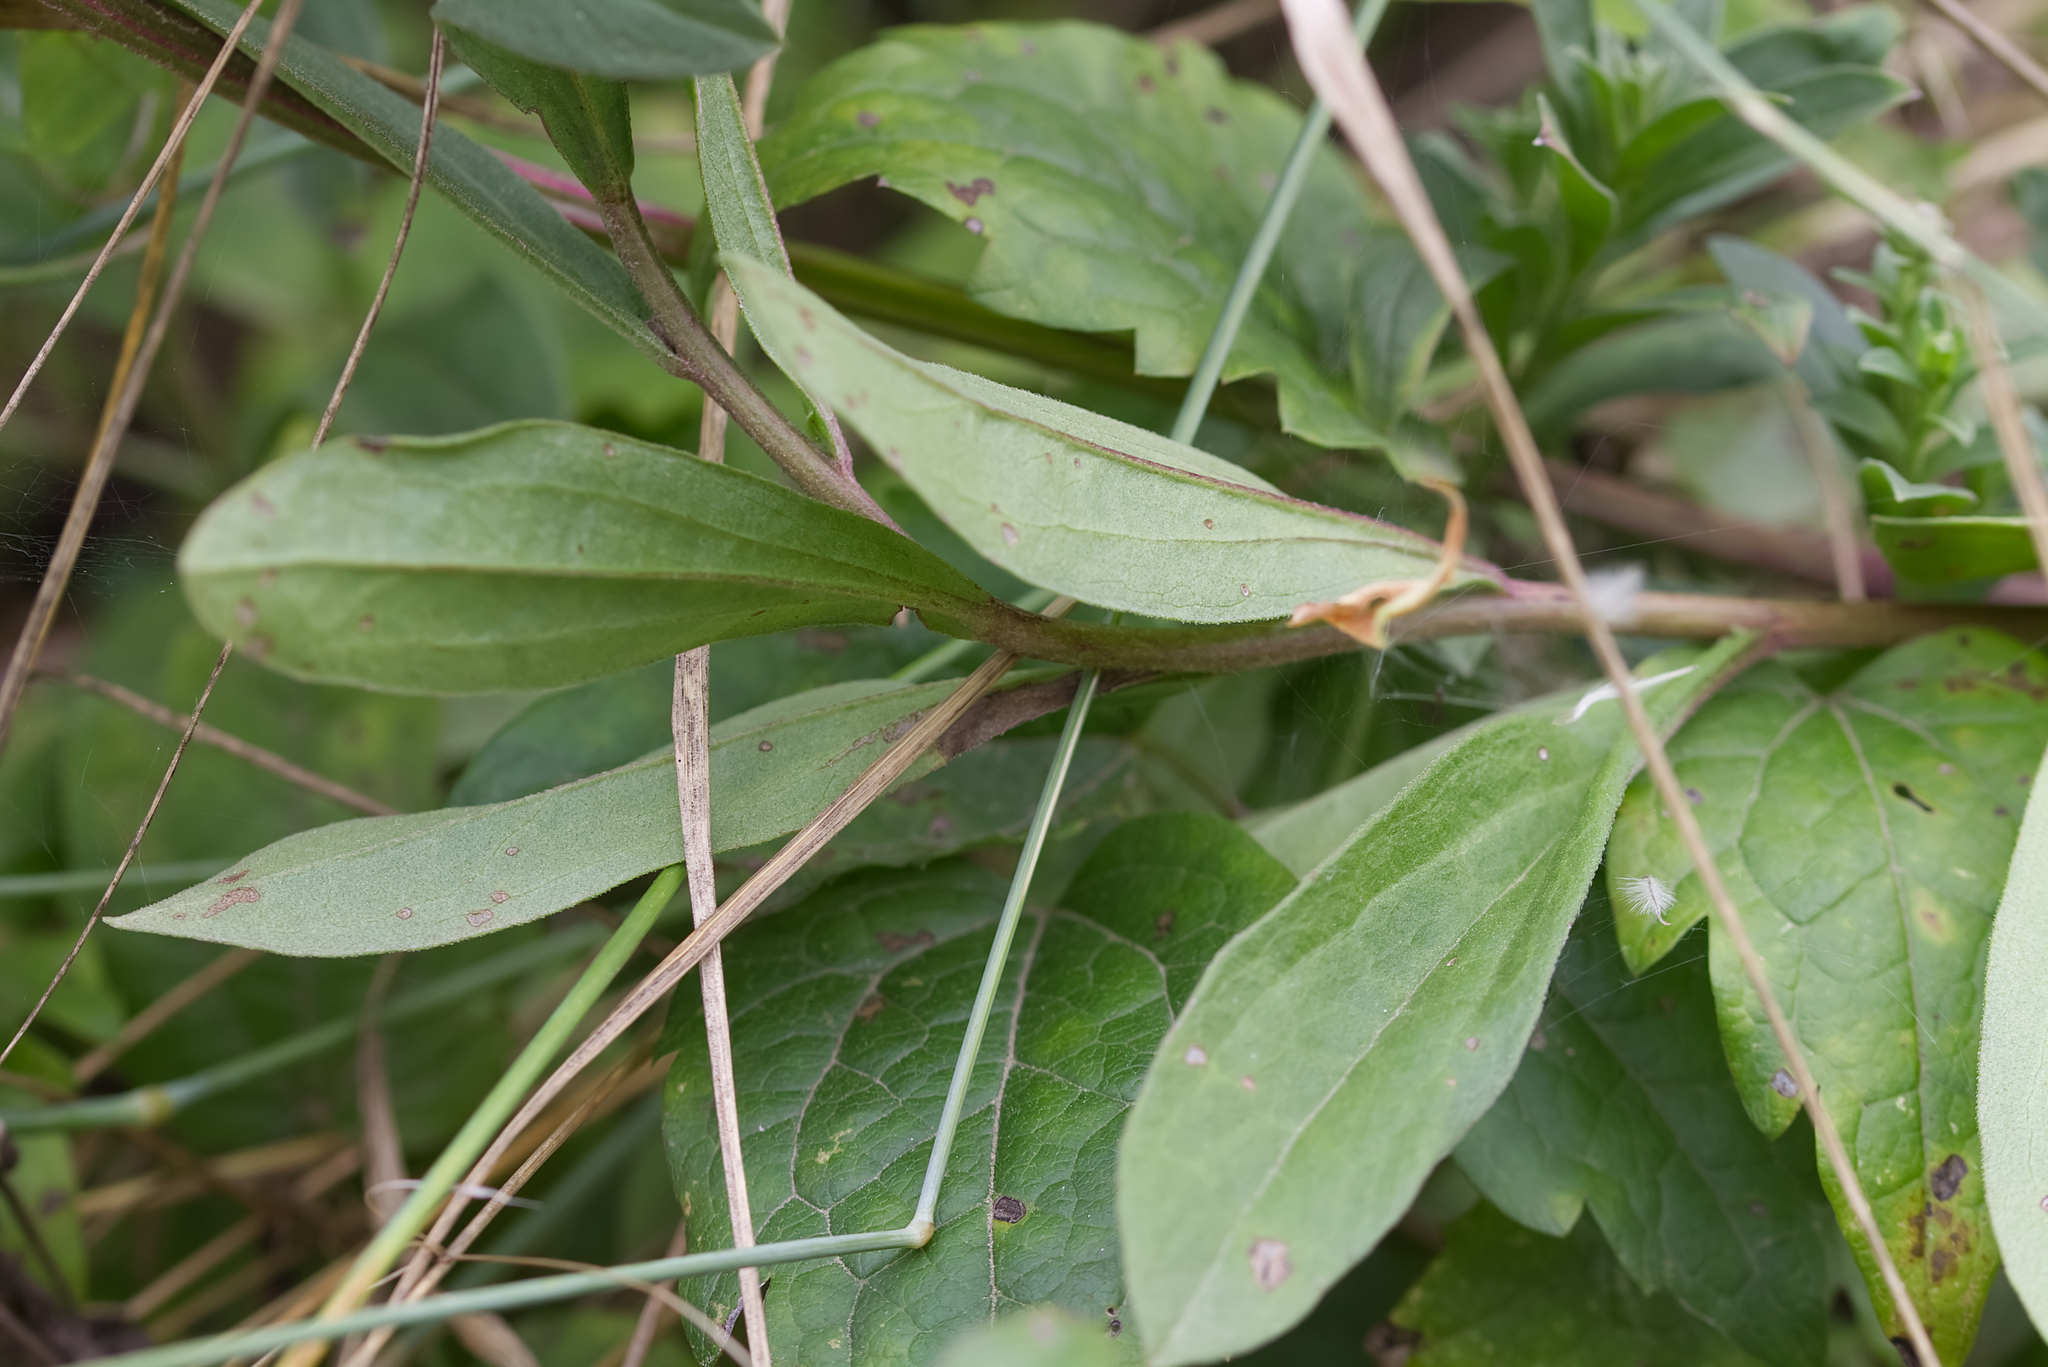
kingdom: Plantae
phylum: Tracheophyta
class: Magnoliopsida
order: Asterales
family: Asteraceae
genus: Aster
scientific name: Aster amellus
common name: European michaelmas daisy
